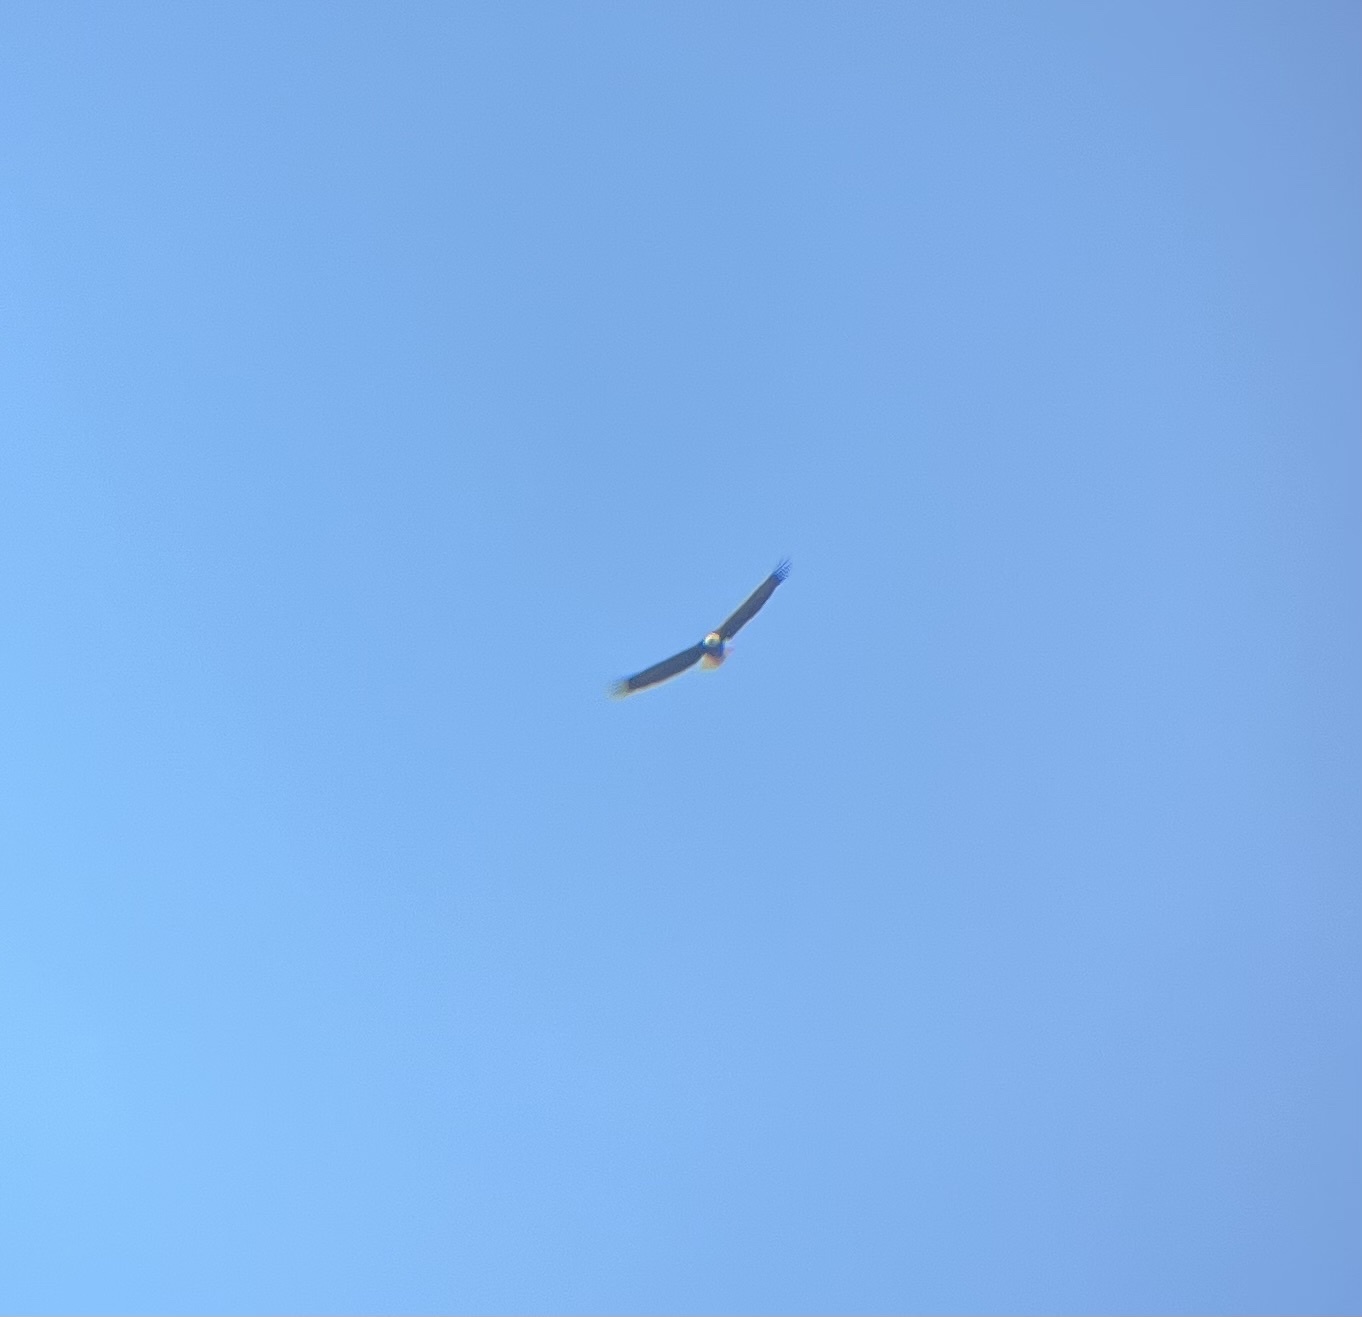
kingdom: Animalia
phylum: Chordata
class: Aves
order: Accipitriformes
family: Accipitridae
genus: Haliaeetus
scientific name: Haliaeetus leucocephalus
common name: Bald eagle
